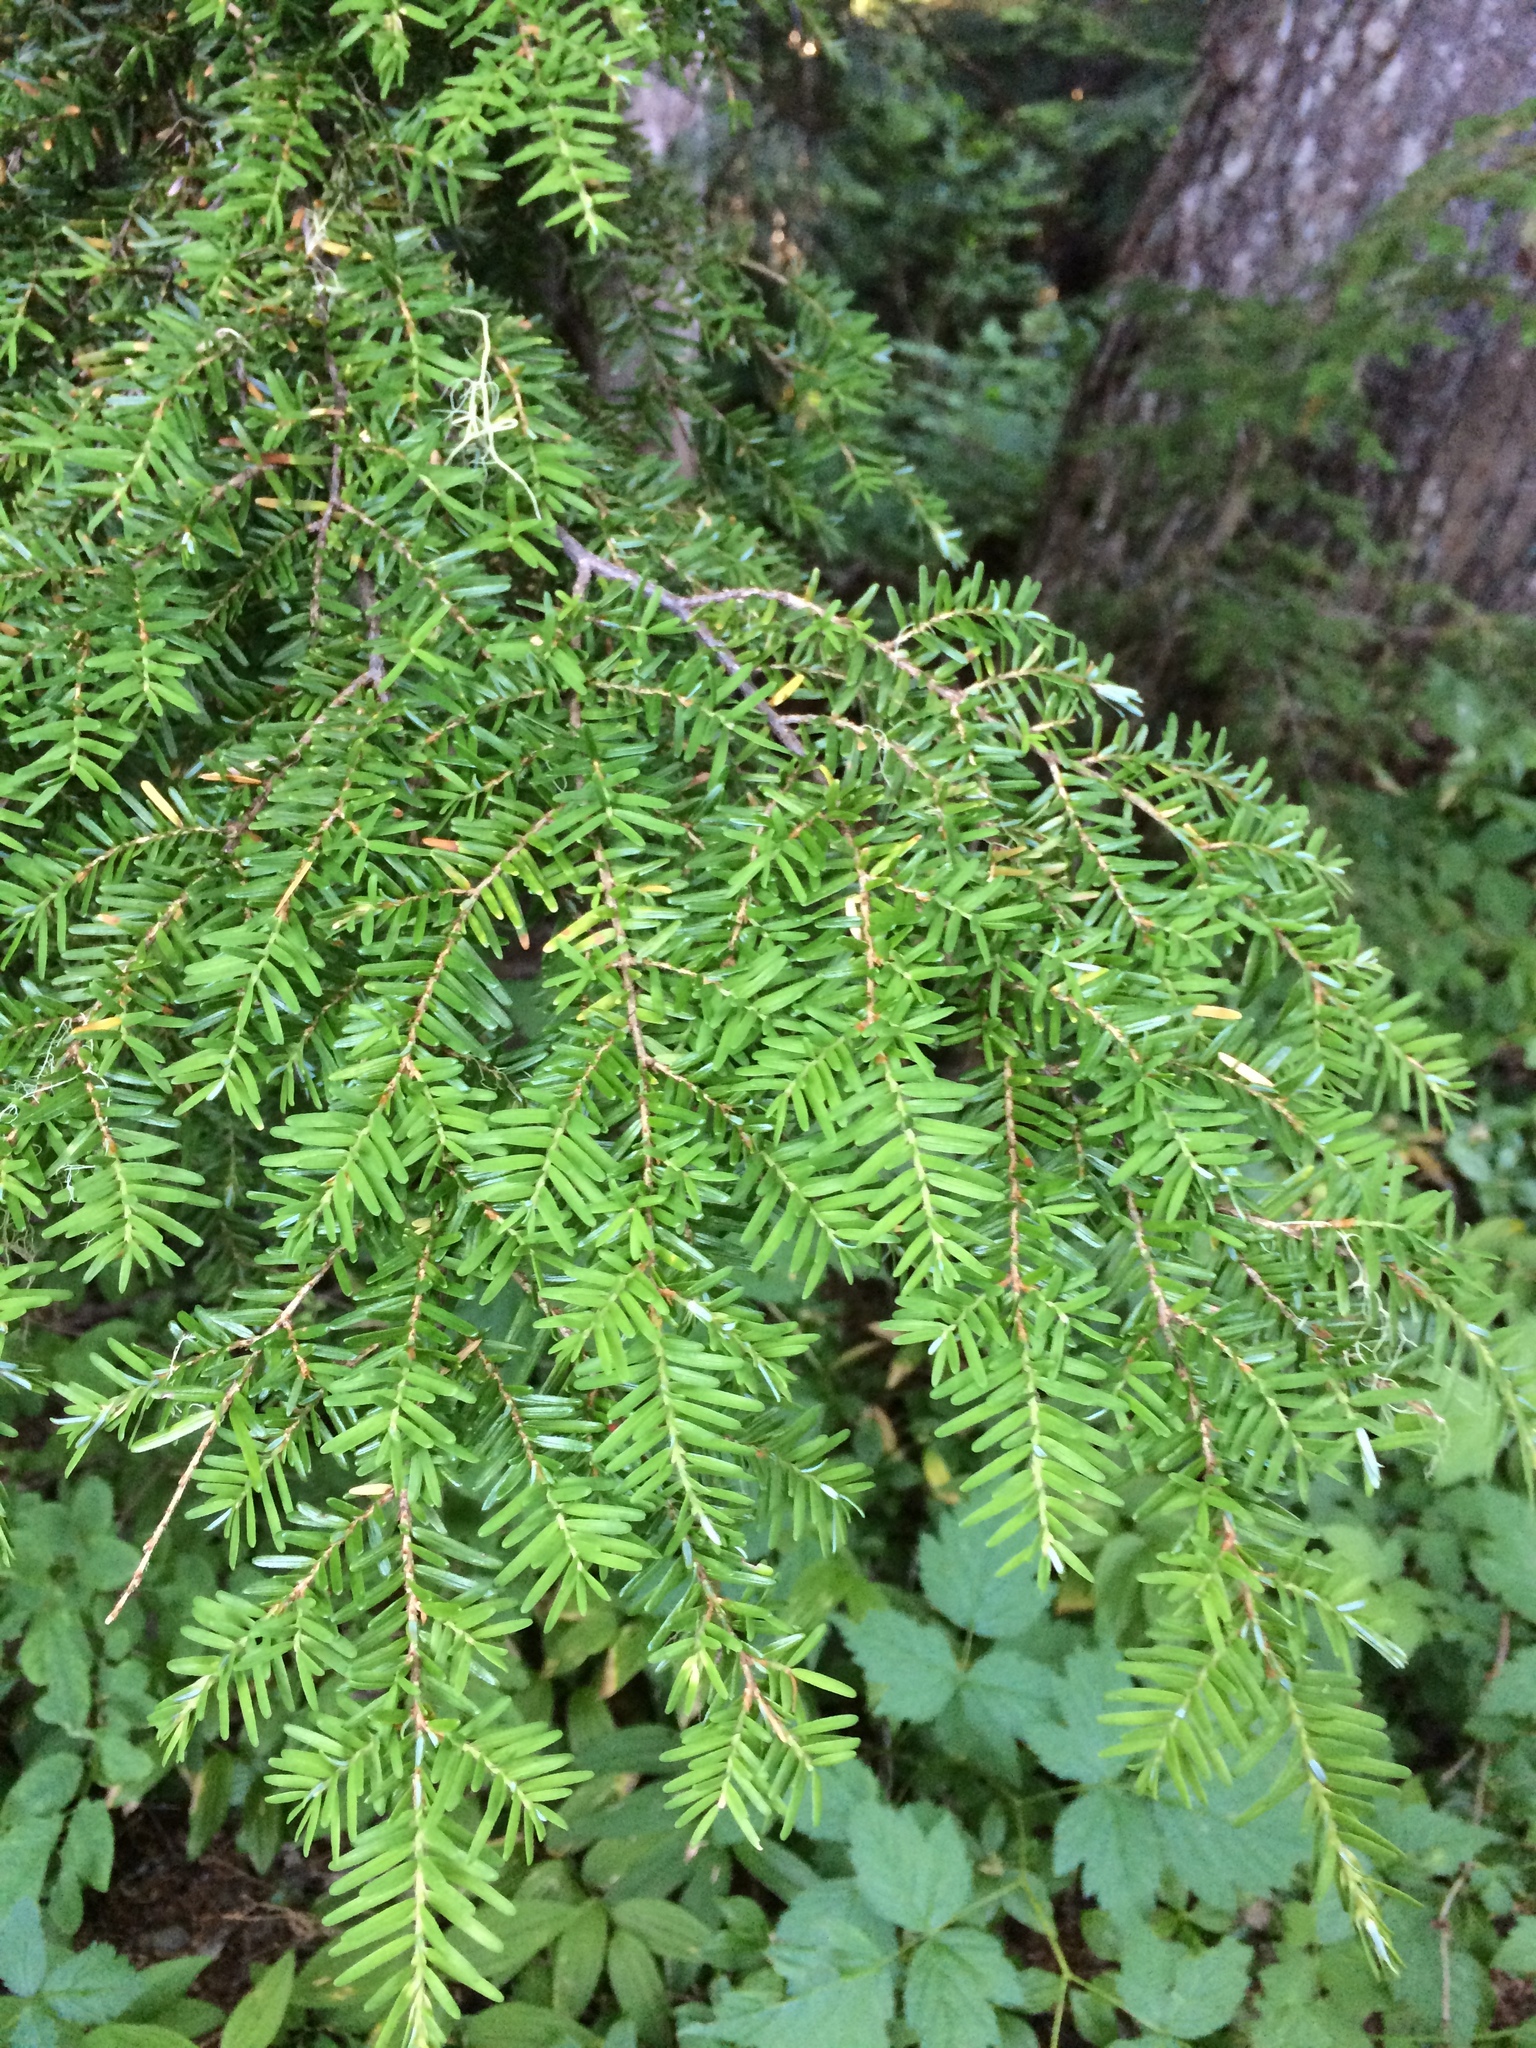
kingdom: Plantae
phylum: Tracheophyta
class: Pinopsida
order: Pinales
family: Pinaceae
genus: Tsuga
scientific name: Tsuga heterophylla
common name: Western hemlock
